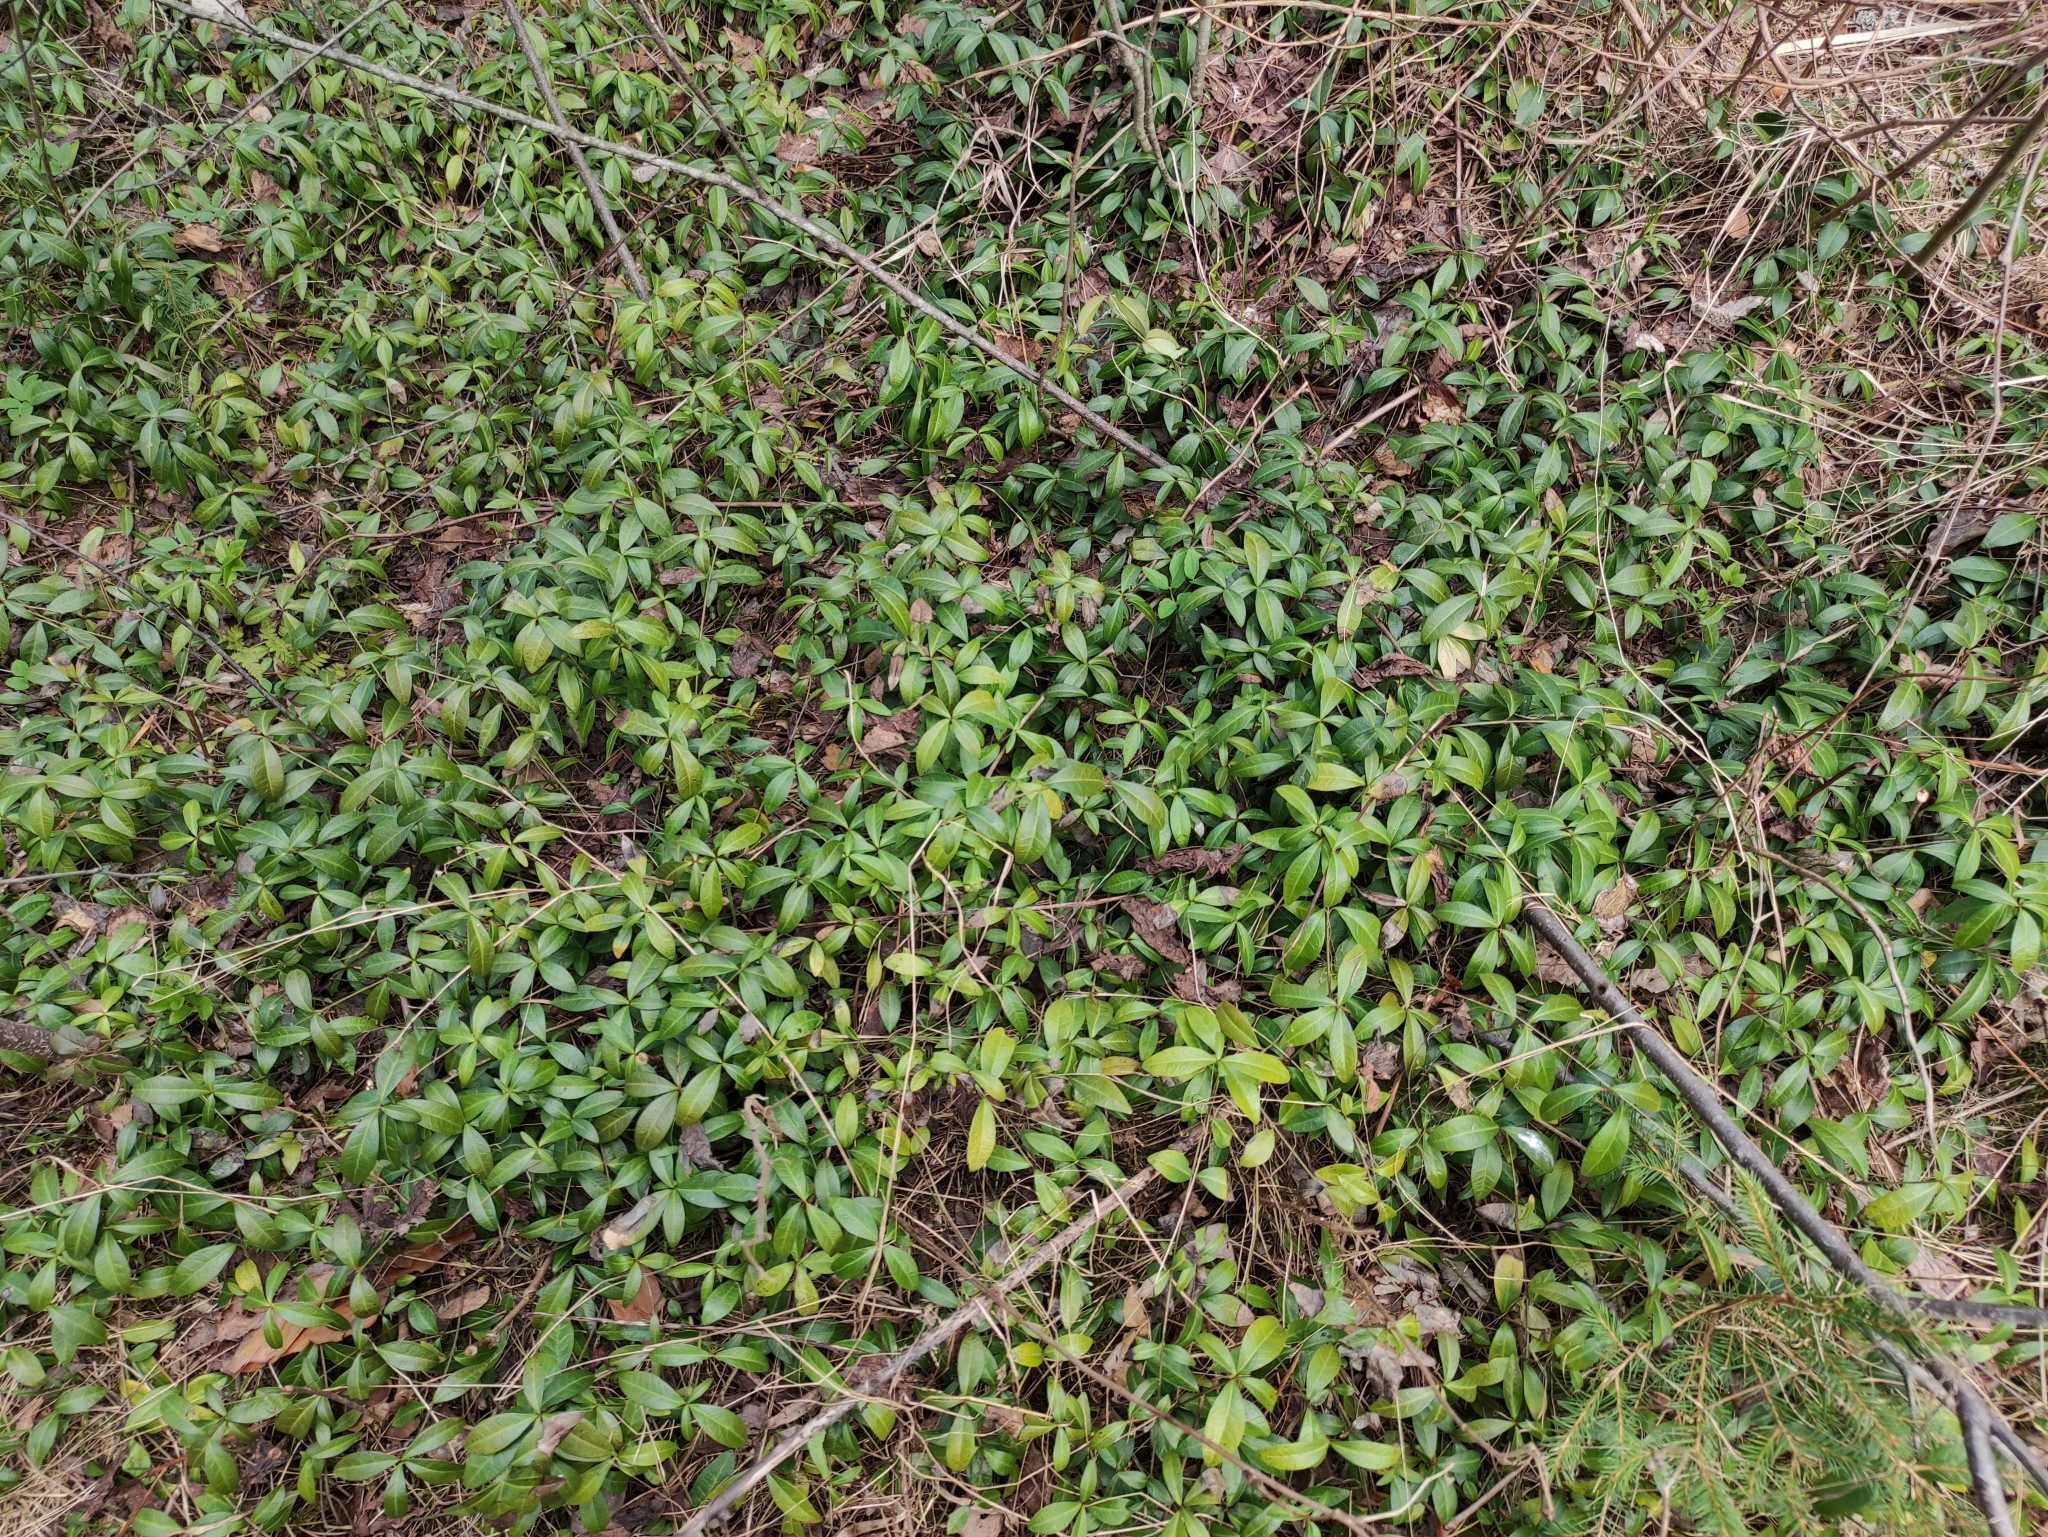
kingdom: Plantae
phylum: Tracheophyta
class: Magnoliopsida
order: Gentianales
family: Apocynaceae
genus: Vinca
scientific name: Vinca minor
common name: Lesser periwinkle
